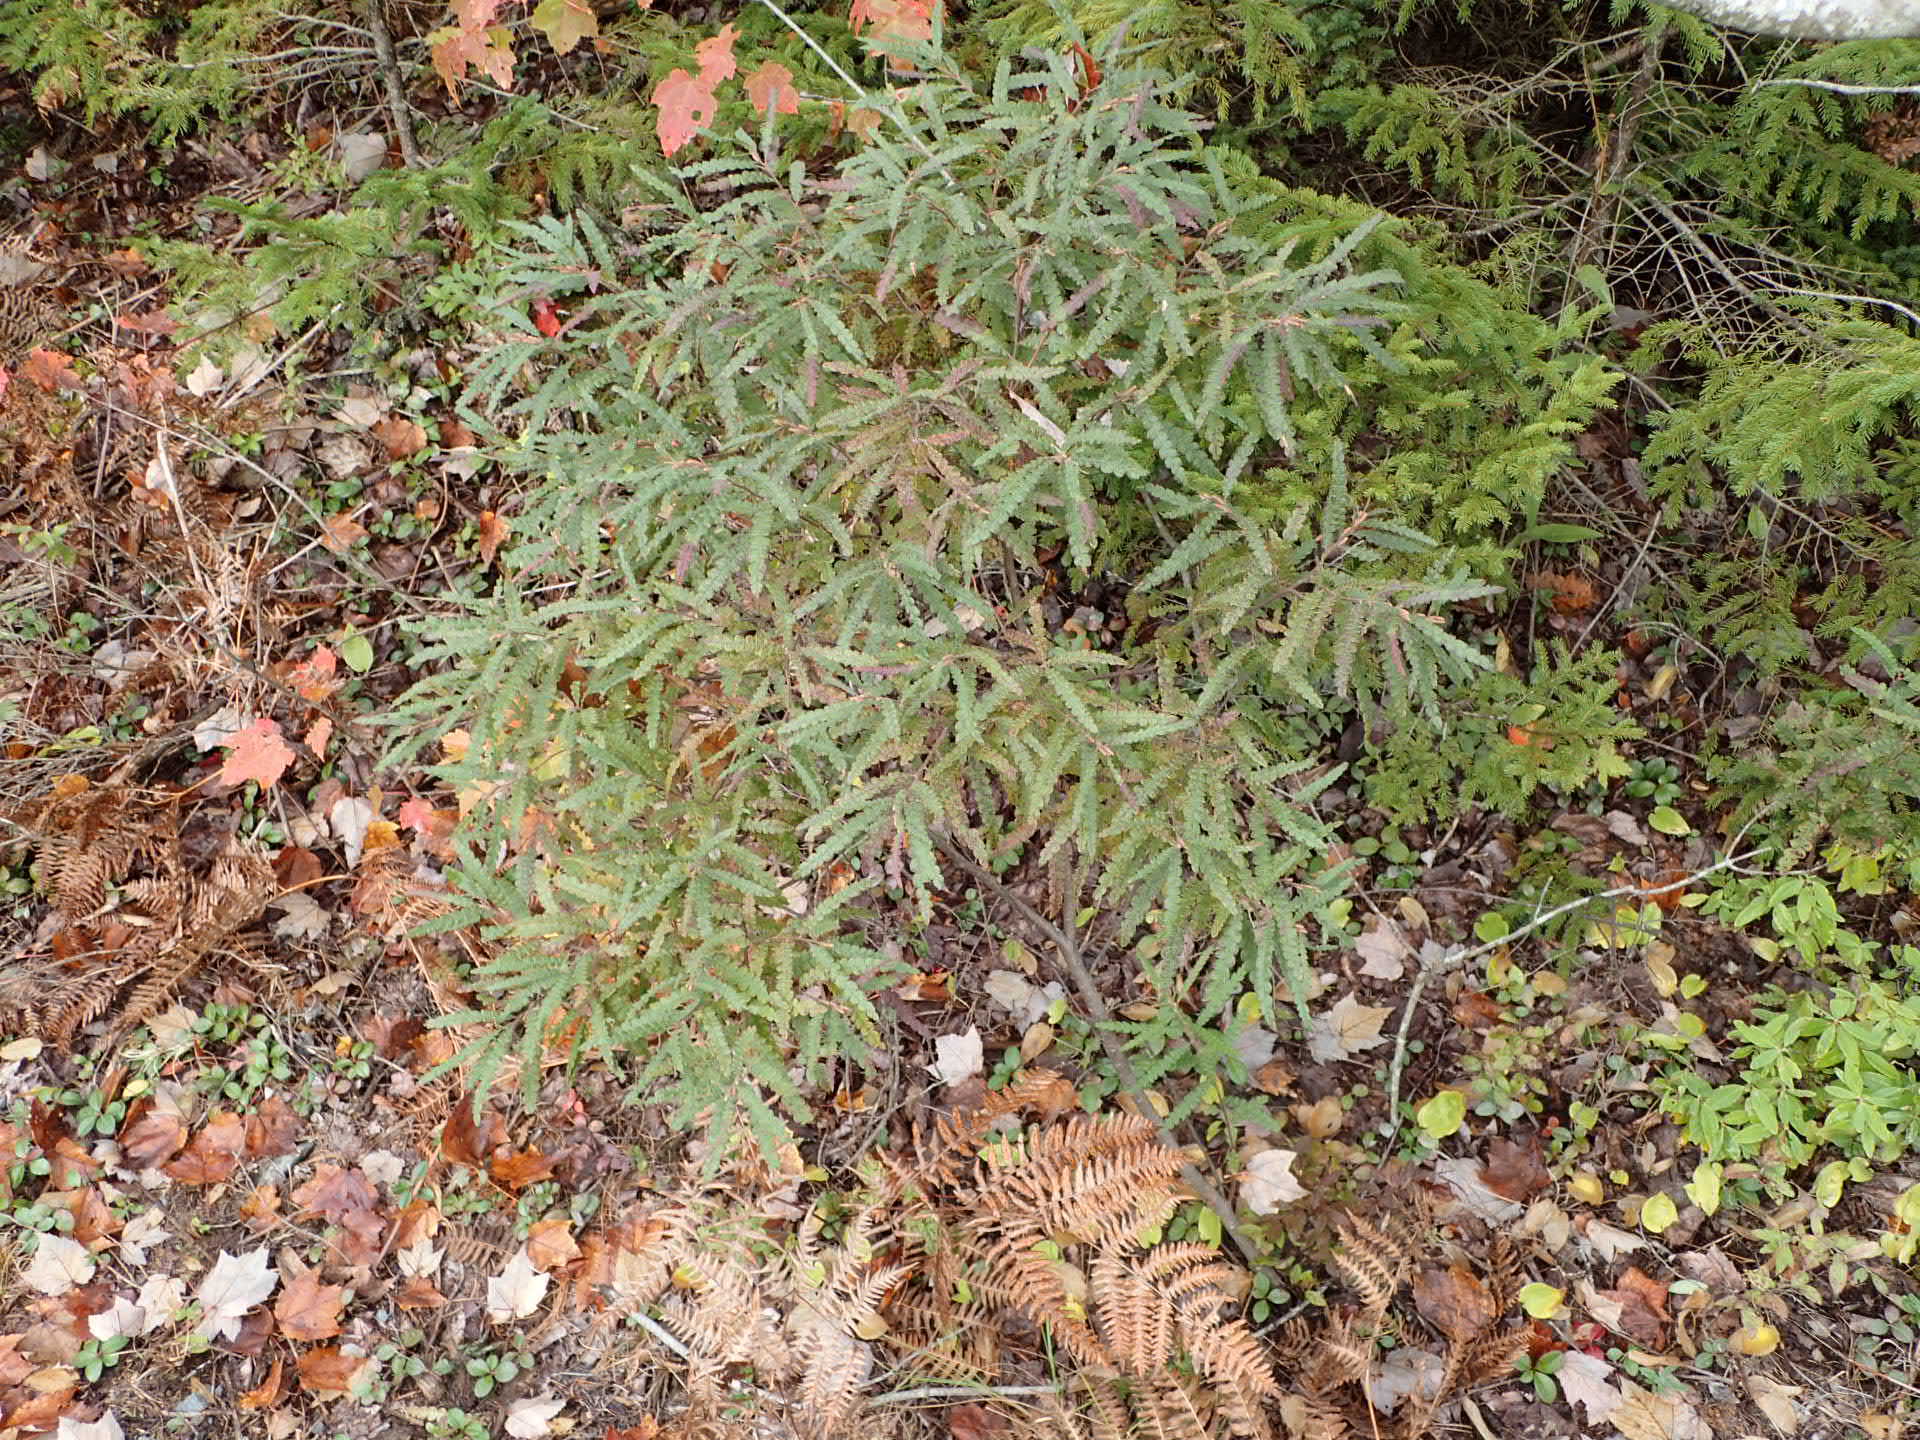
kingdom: Plantae
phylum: Tracheophyta
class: Magnoliopsida
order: Fagales
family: Myricaceae
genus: Comptonia
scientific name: Comptonia peregrina
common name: Sweet-fern
